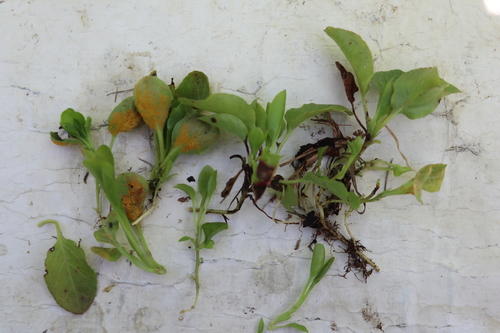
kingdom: Fungi
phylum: Basidiomycota
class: Pucciniomycetes
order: Pucciniales
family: Coleosporiaceae
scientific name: Coleosporiaceae
